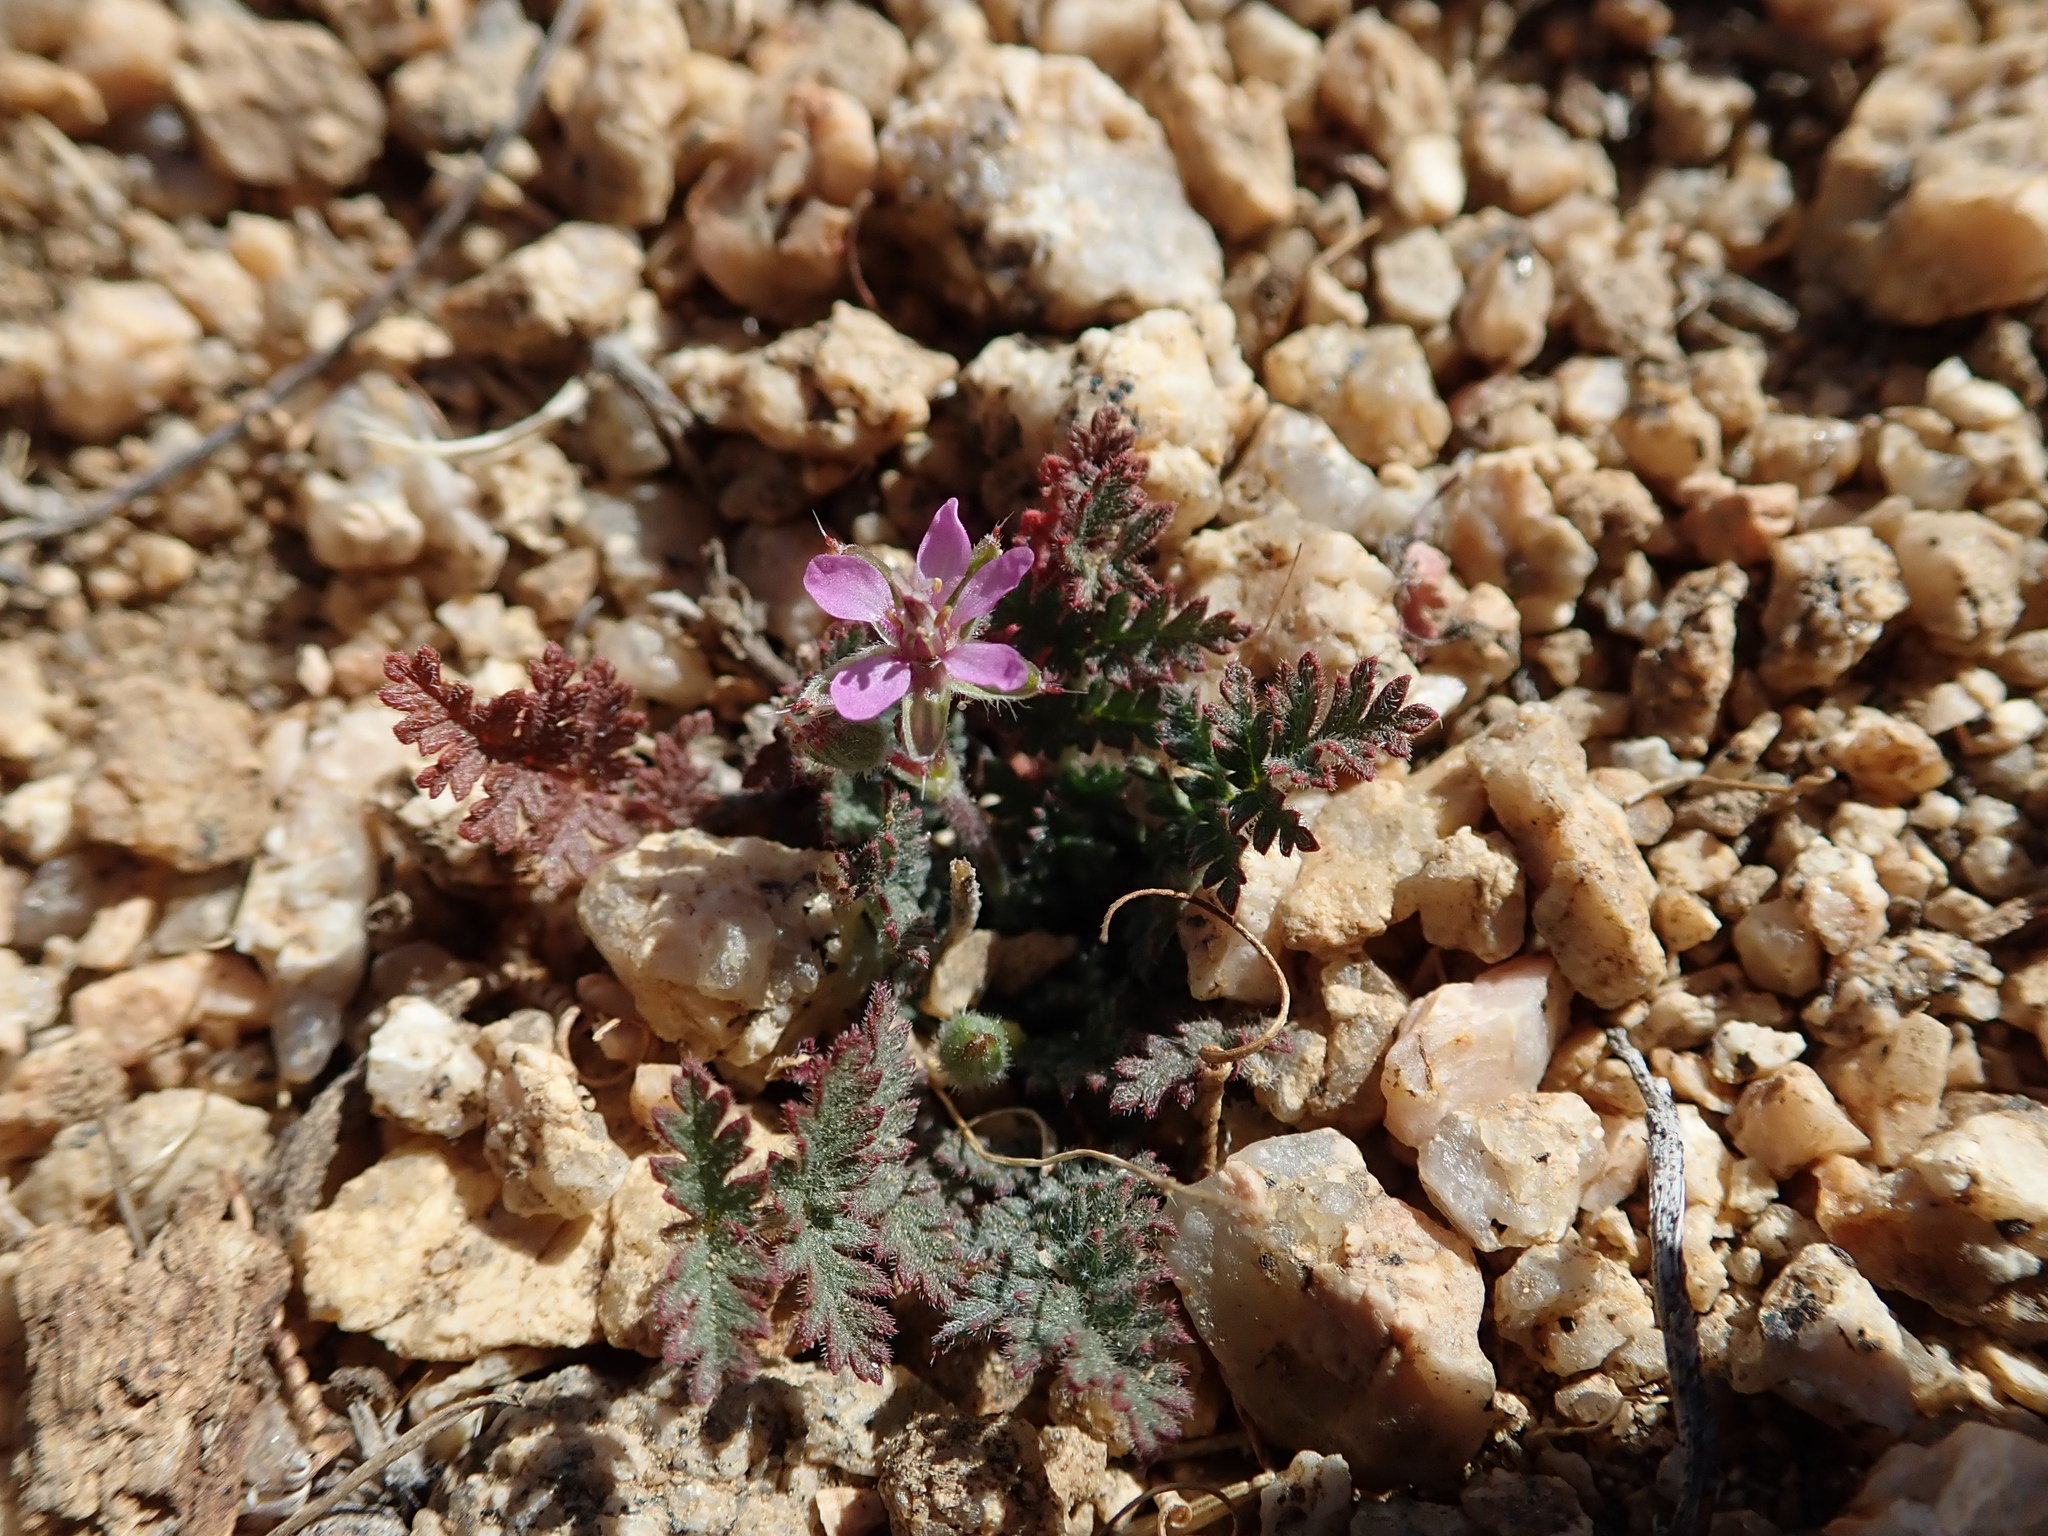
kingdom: Plantae
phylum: Tracheophyta
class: Magnoliopsida
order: Geraniales
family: Geraniaceae
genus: Erodium
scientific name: Erodium cicutarium
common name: Common stork's-bill
